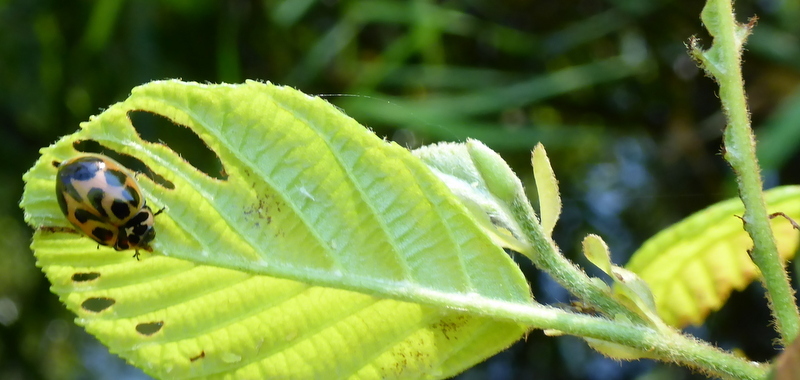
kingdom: Animalia
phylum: Arthropoda
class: Insecta
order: Coleoptera
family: Coccinellidae
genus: Neoharmonia
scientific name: Neoharmonia venusta
